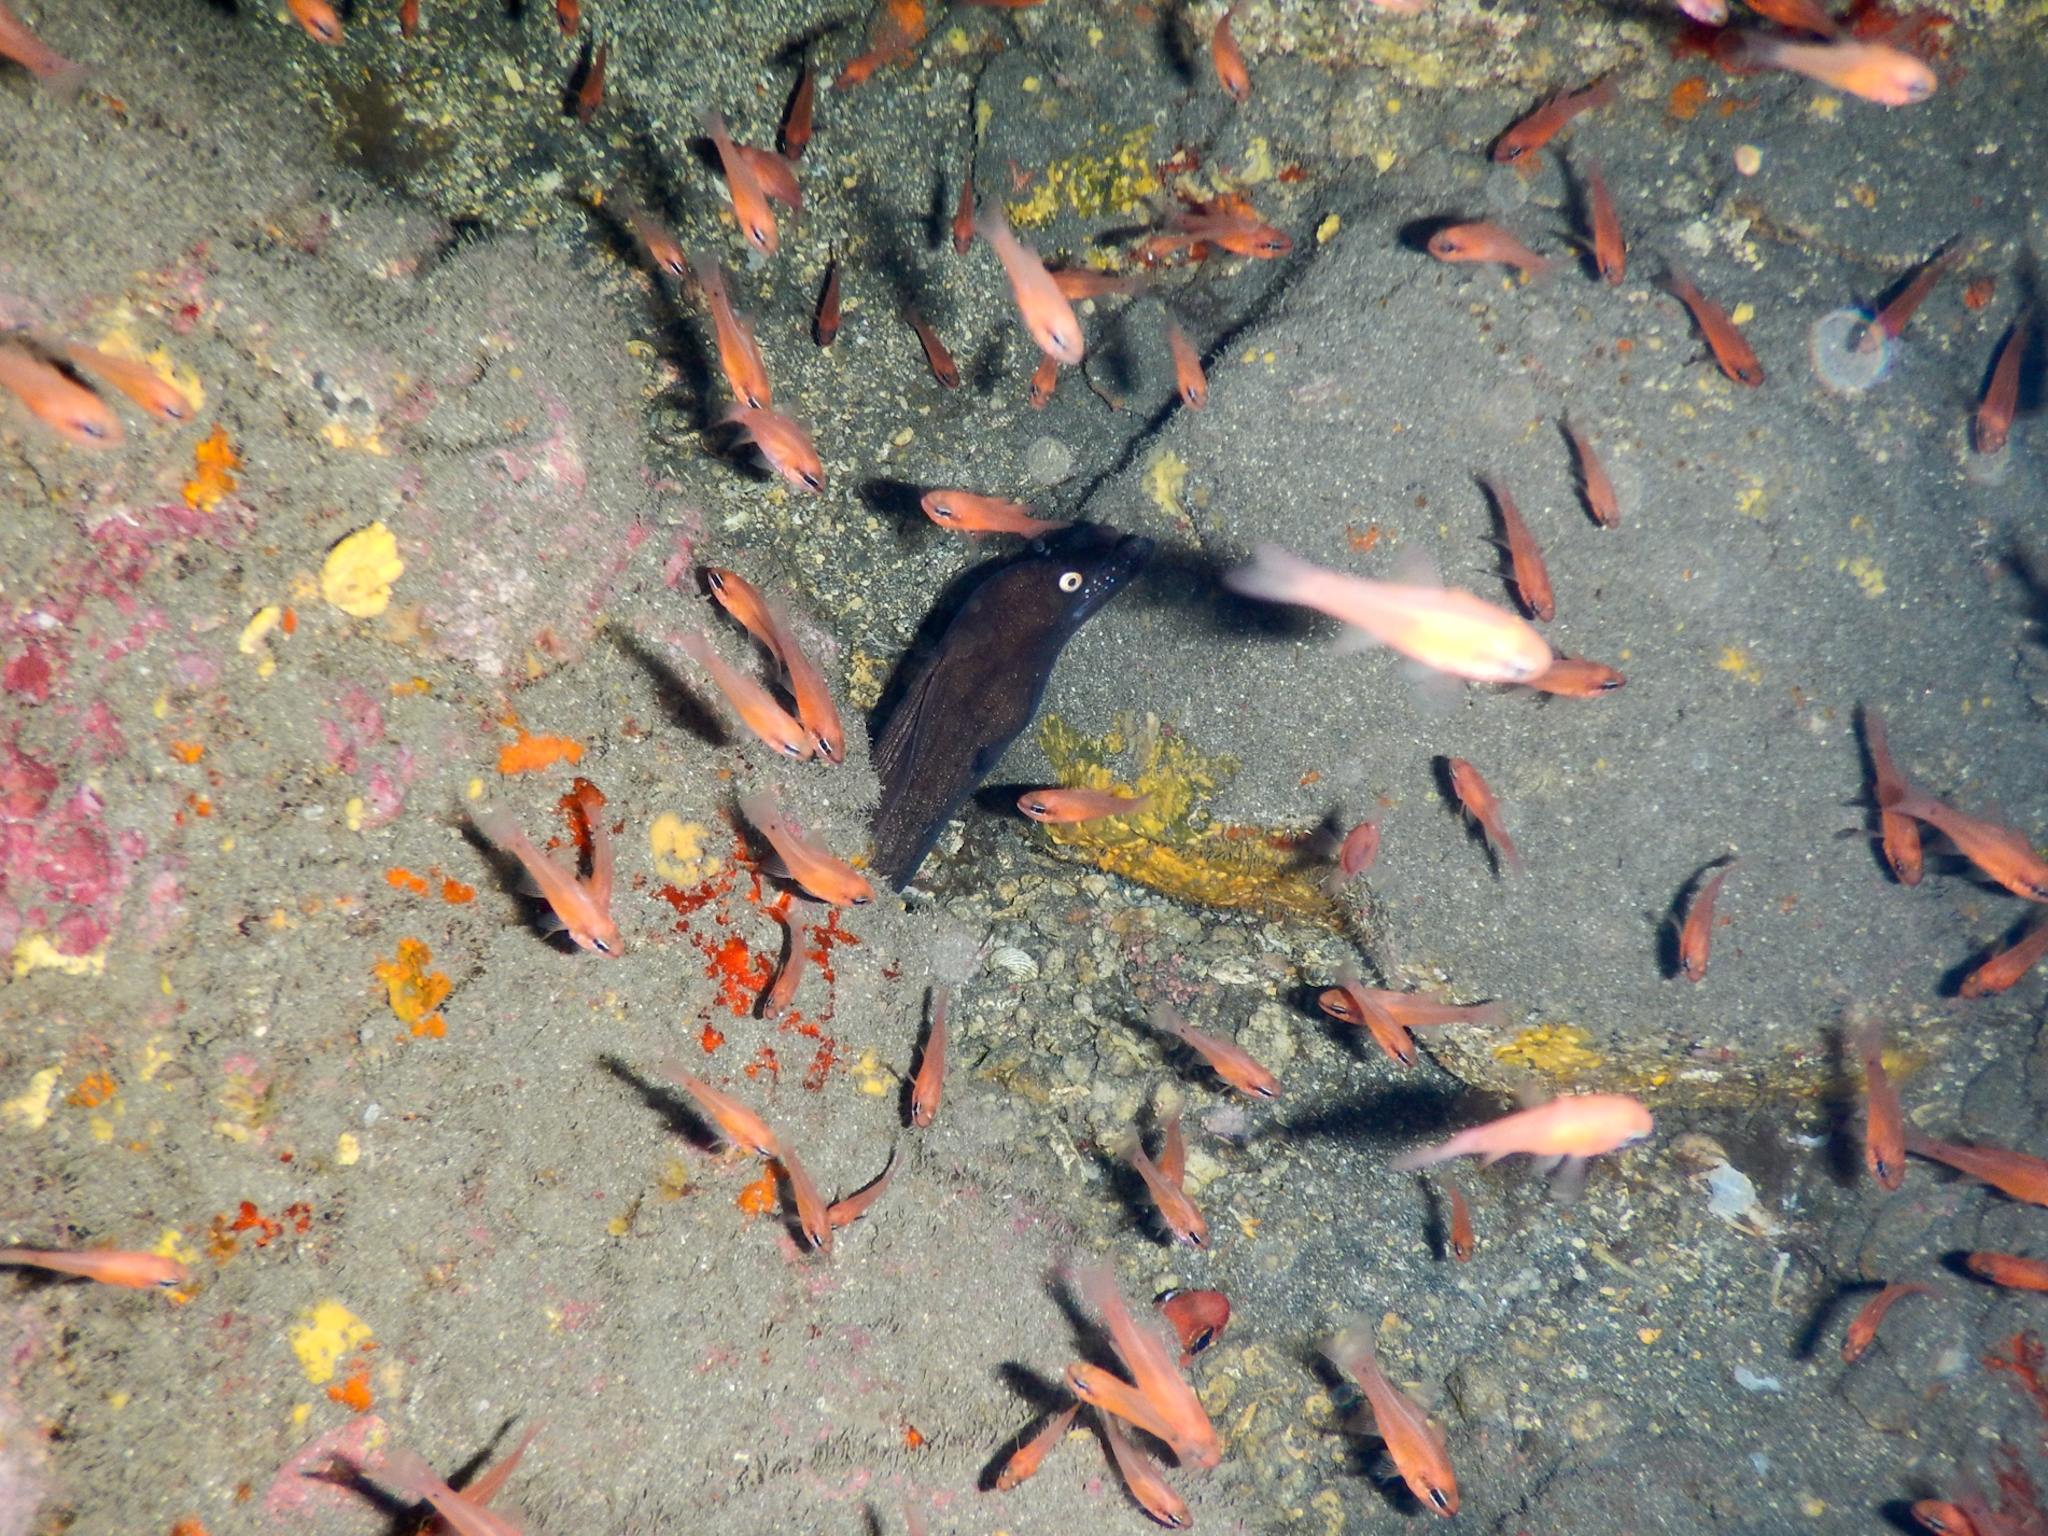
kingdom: Animalia
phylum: Chordata
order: Perciformes
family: Apogonidae
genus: Apogon
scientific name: Apogon imberbis
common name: Cardinal fish
